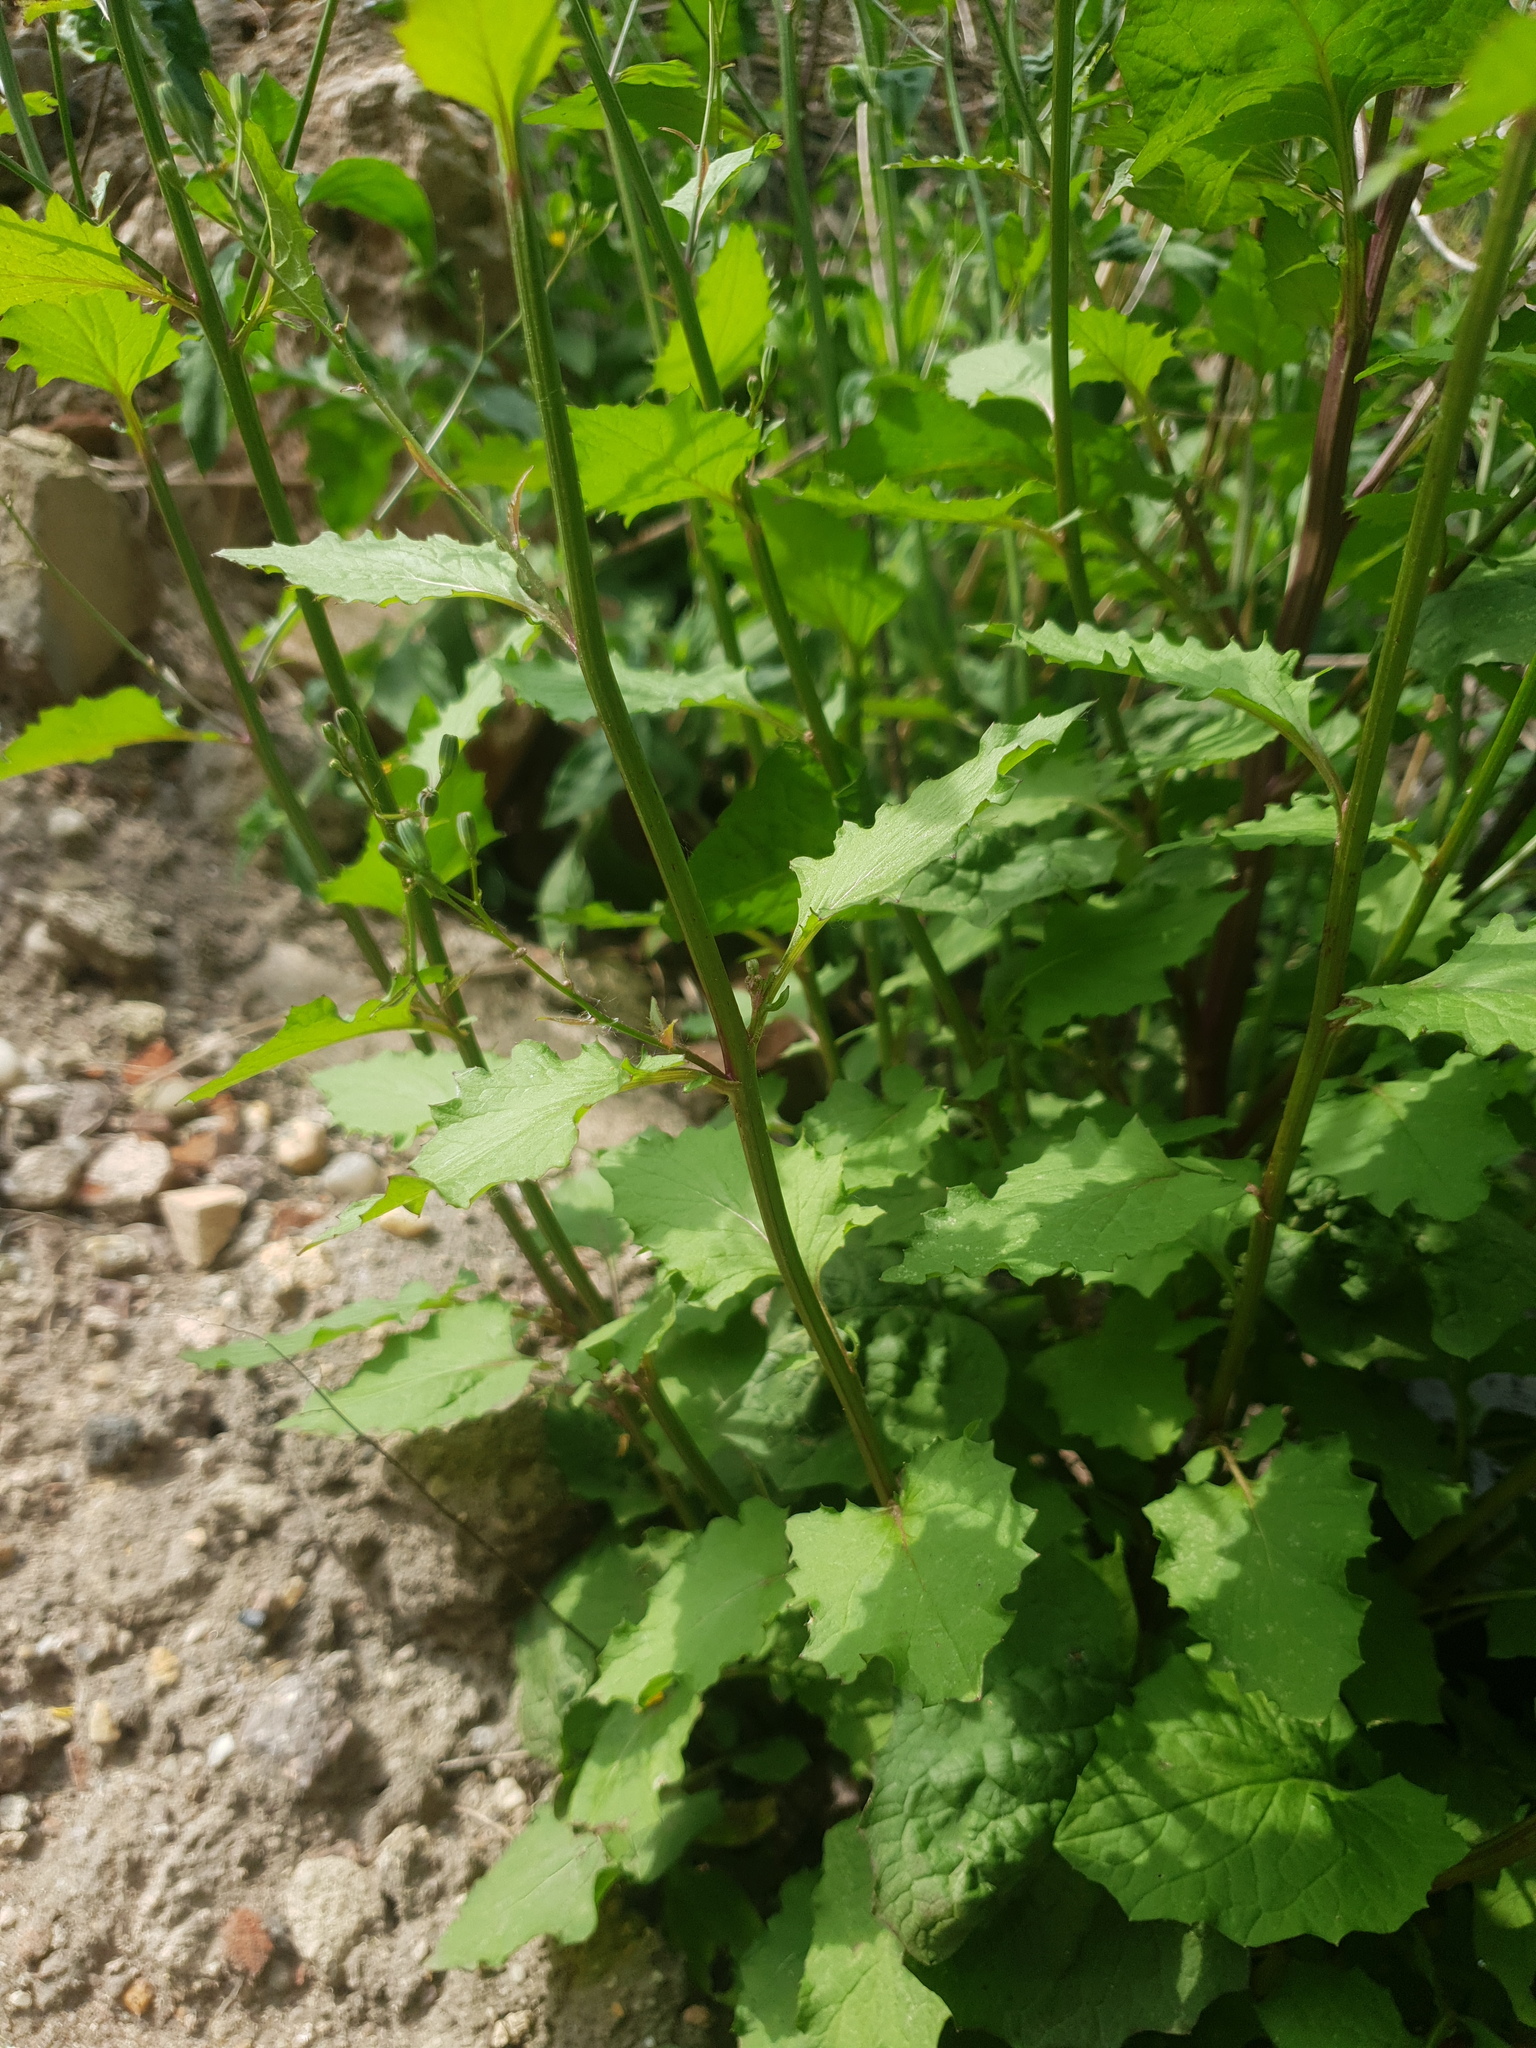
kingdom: Plantae
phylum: Tracheophyta
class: Magnoliopsida
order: Asterales
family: Asteraceae
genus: Lapsana
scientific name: Lapsana communis
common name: Nipplewort
